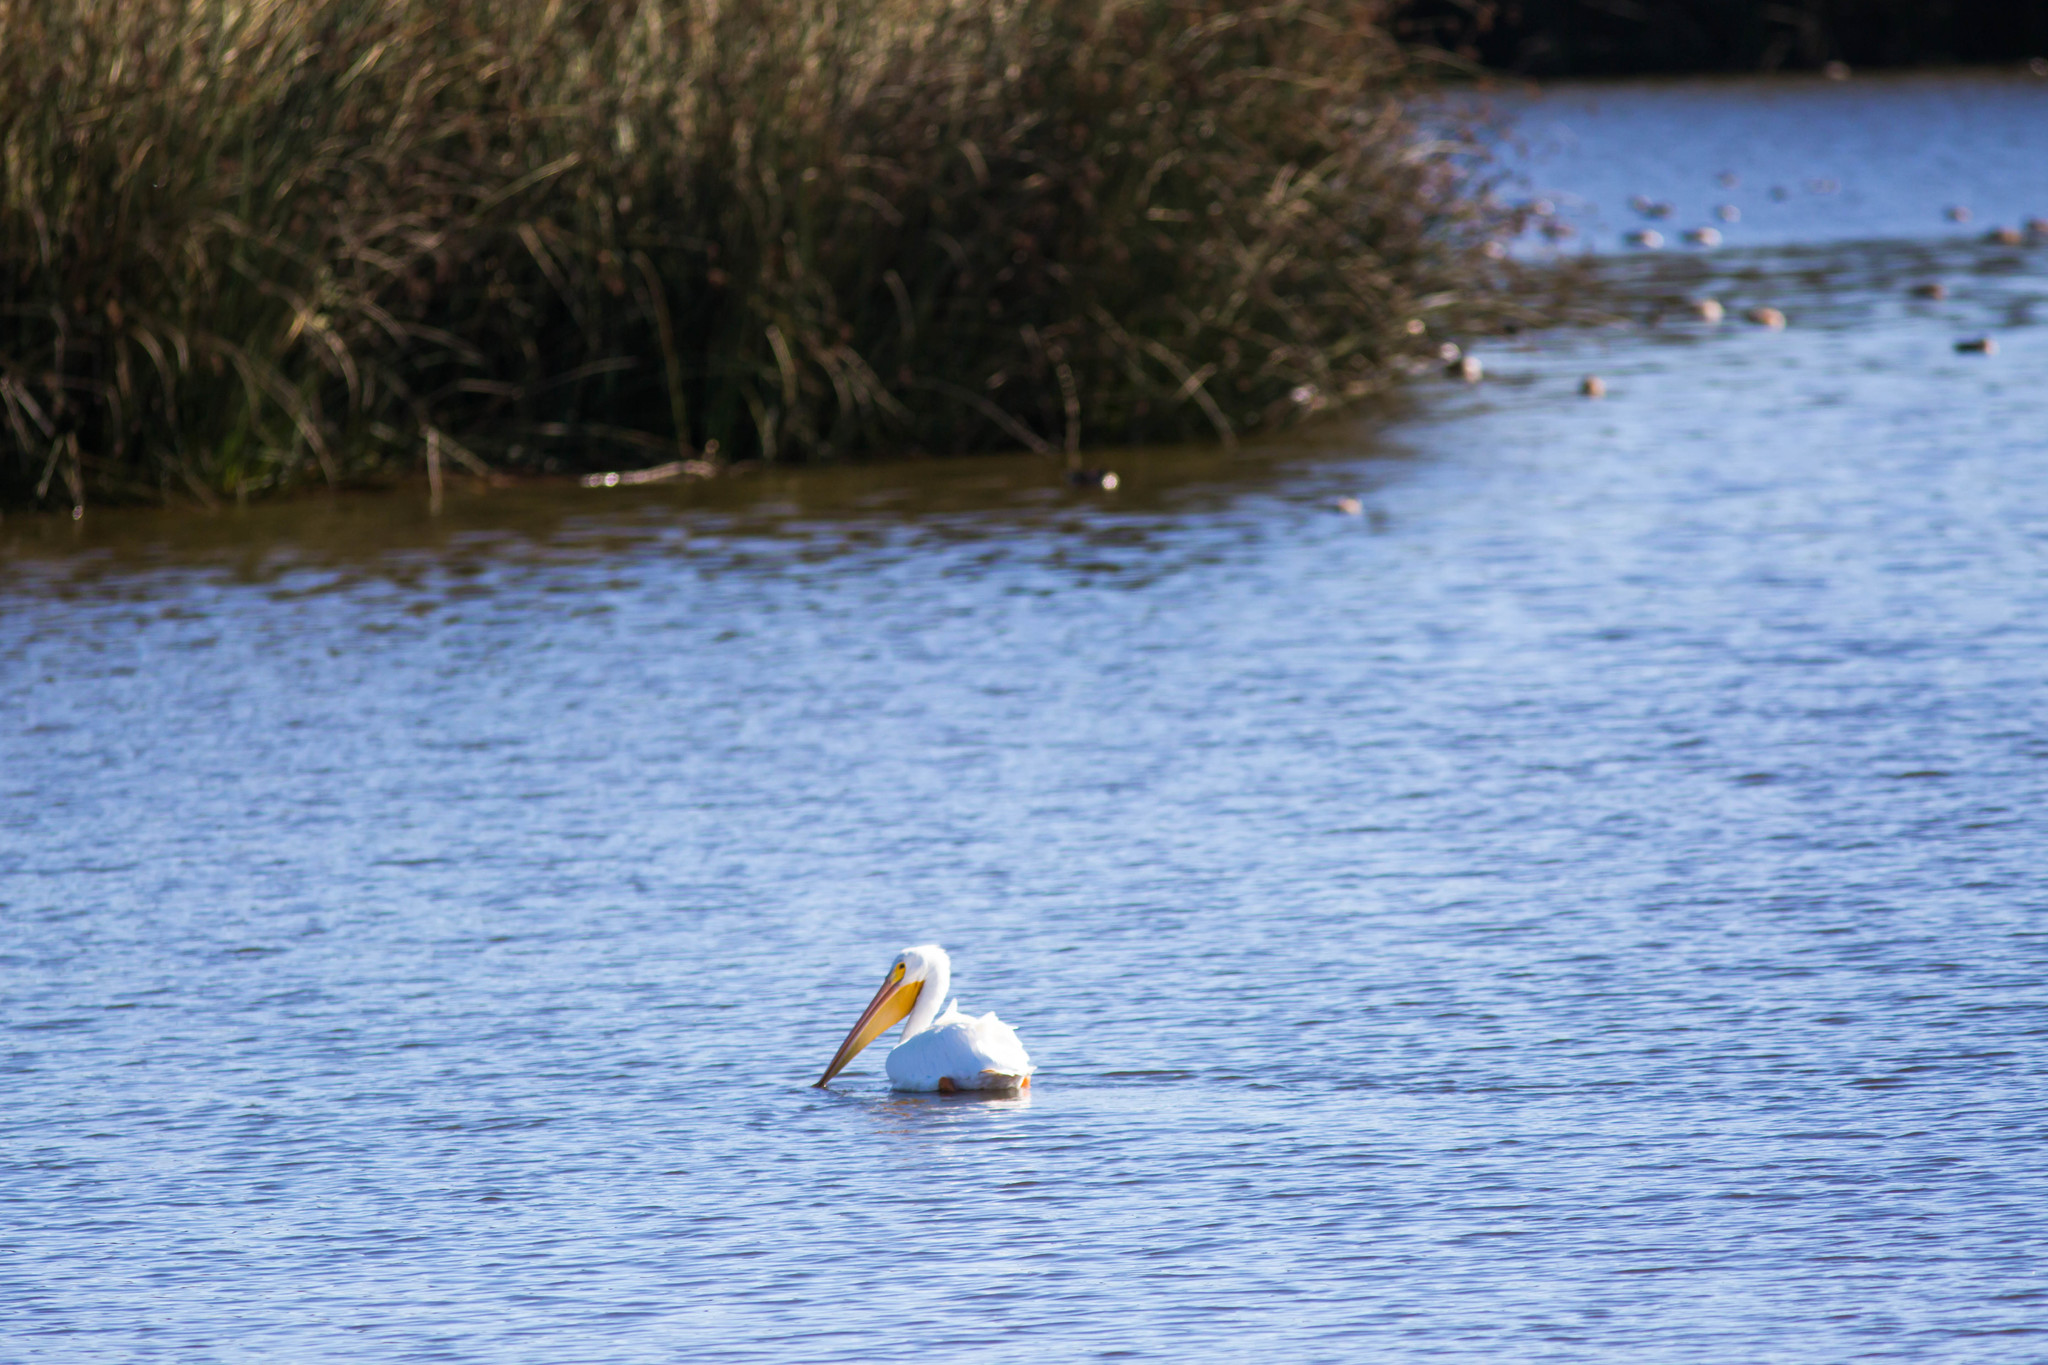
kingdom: Animalia
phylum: Chordata
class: Aves
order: Pelecaniformes
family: Pelecanidae
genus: Pelecanus
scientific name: Pelecanus erythrorhynchos
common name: American white pelican
